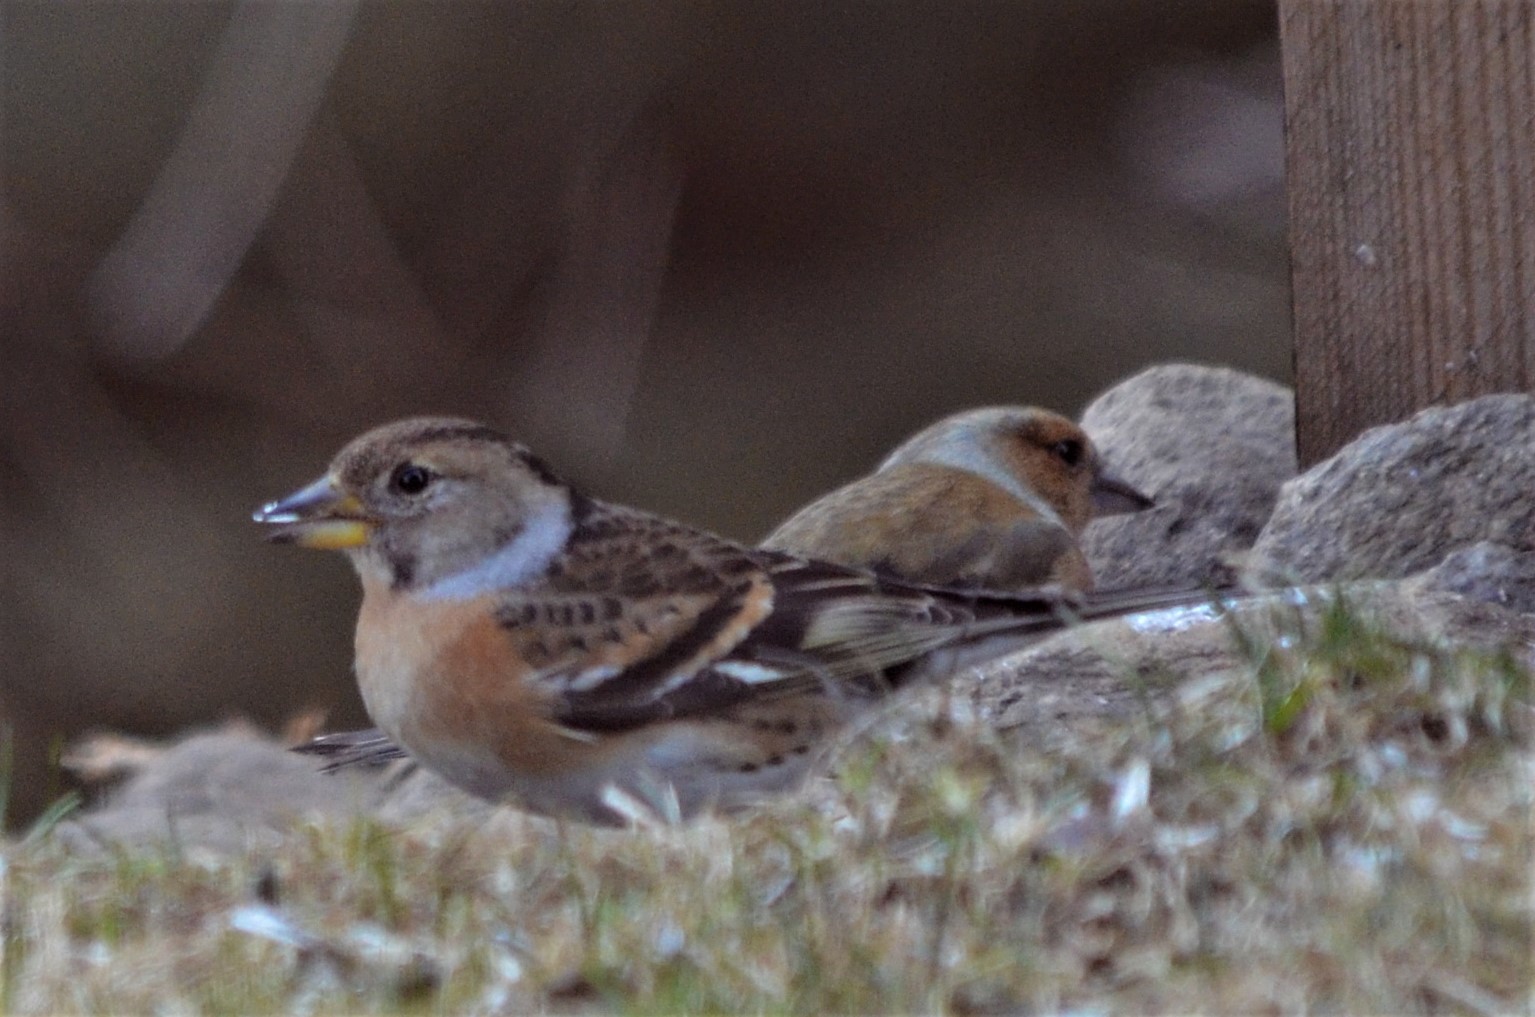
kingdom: Animalia
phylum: Chordata
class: Aves
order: Passeriformes
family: Fringillidae
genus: Fringilla
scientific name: Fringilla montifringilla
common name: Brambling
